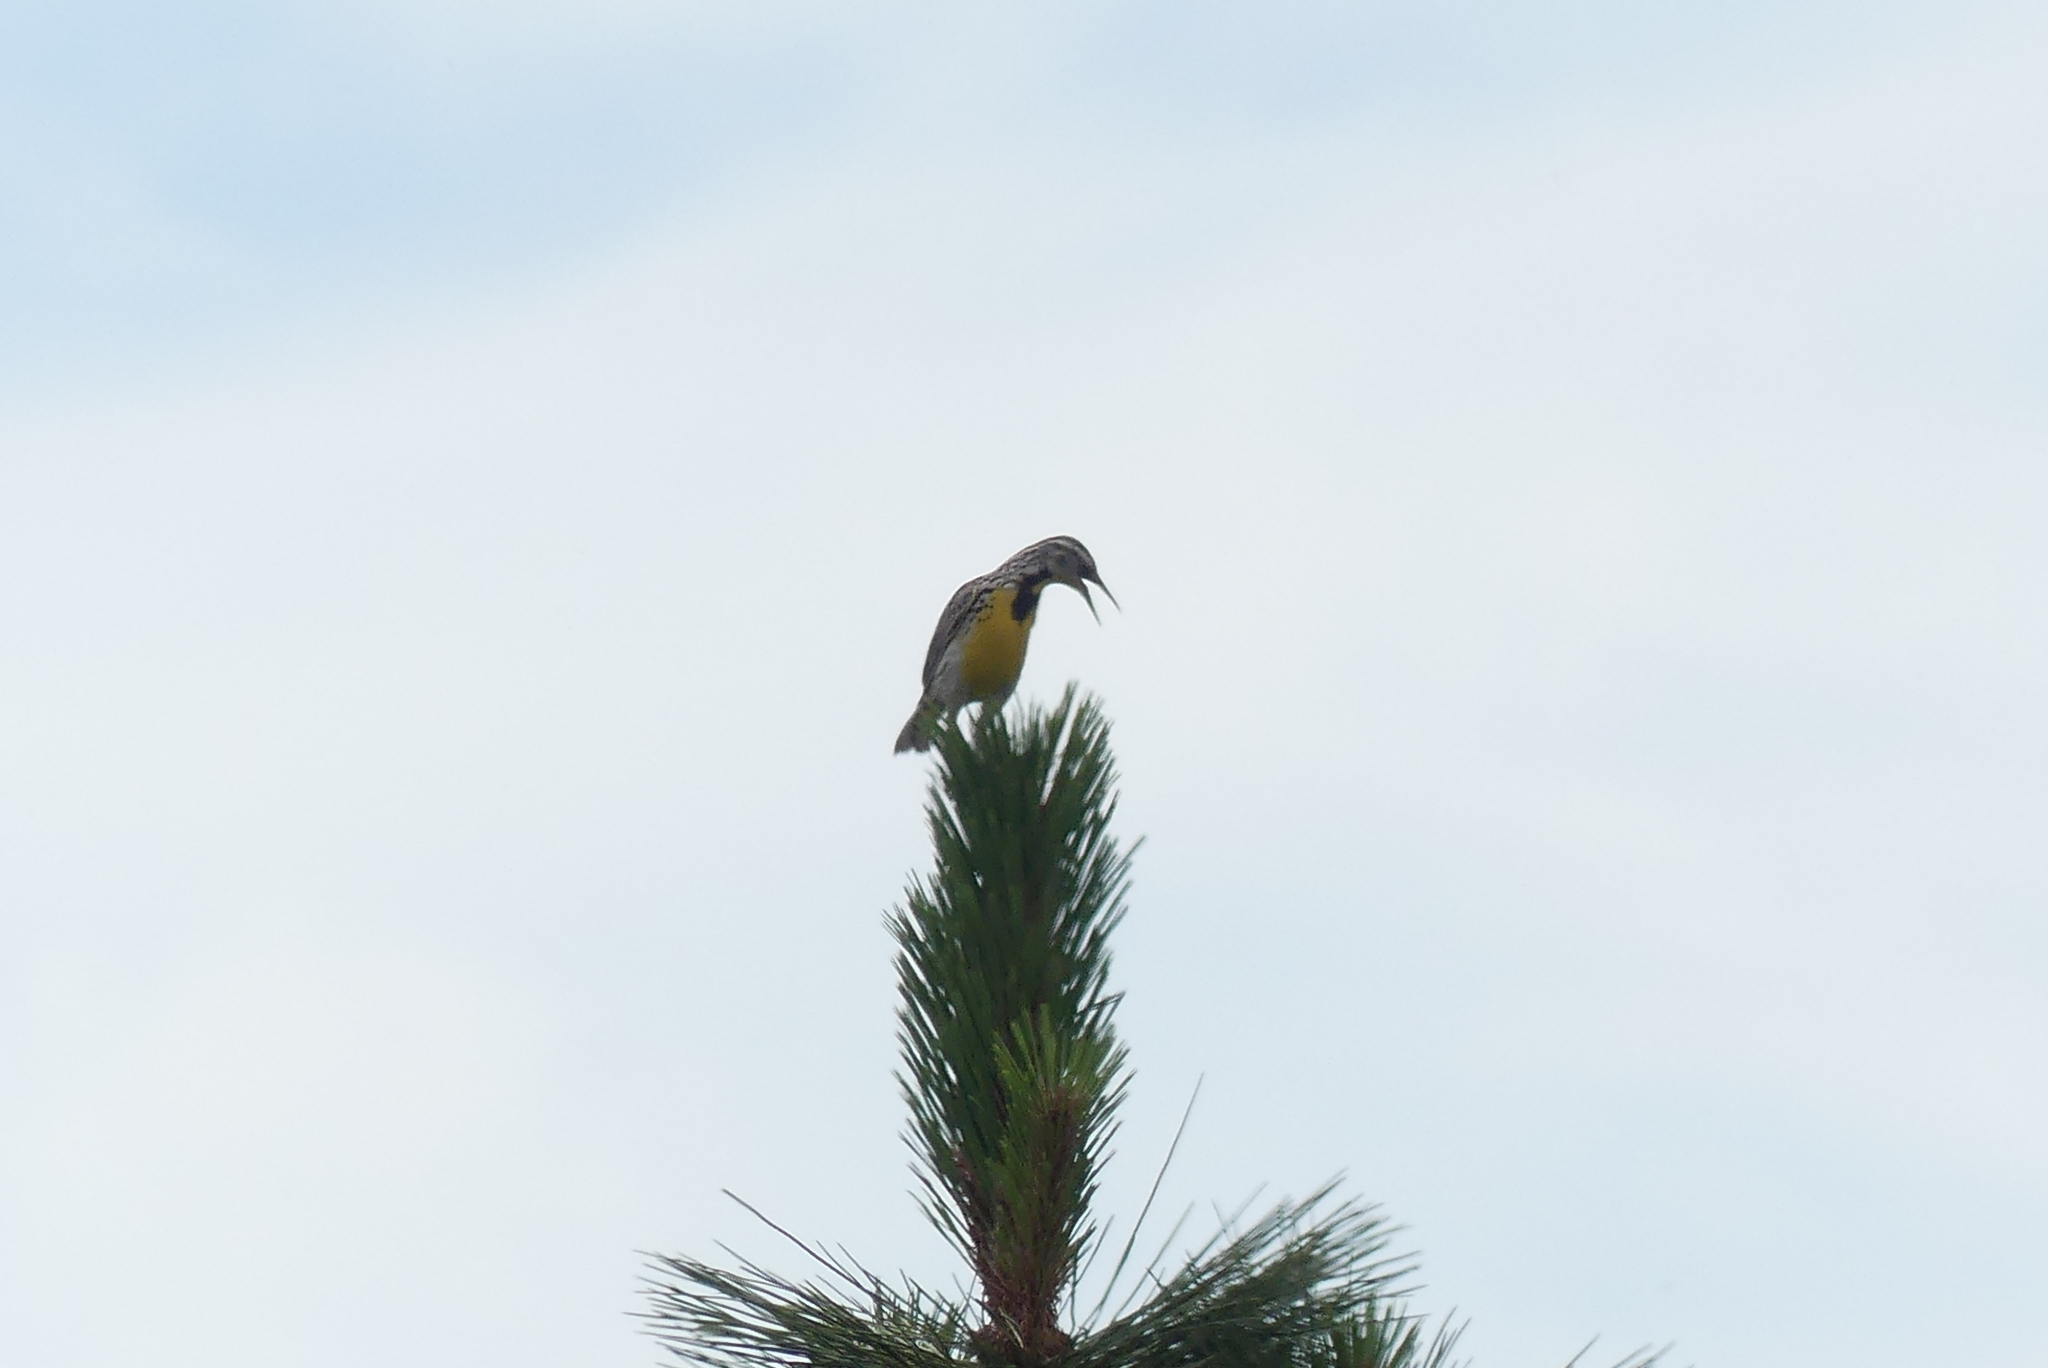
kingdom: Animalia
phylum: Chordata
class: Aves
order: Passeriformes
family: Icteridae
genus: Sturnella
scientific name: Sturnella neglecta
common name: Western meadowlark
